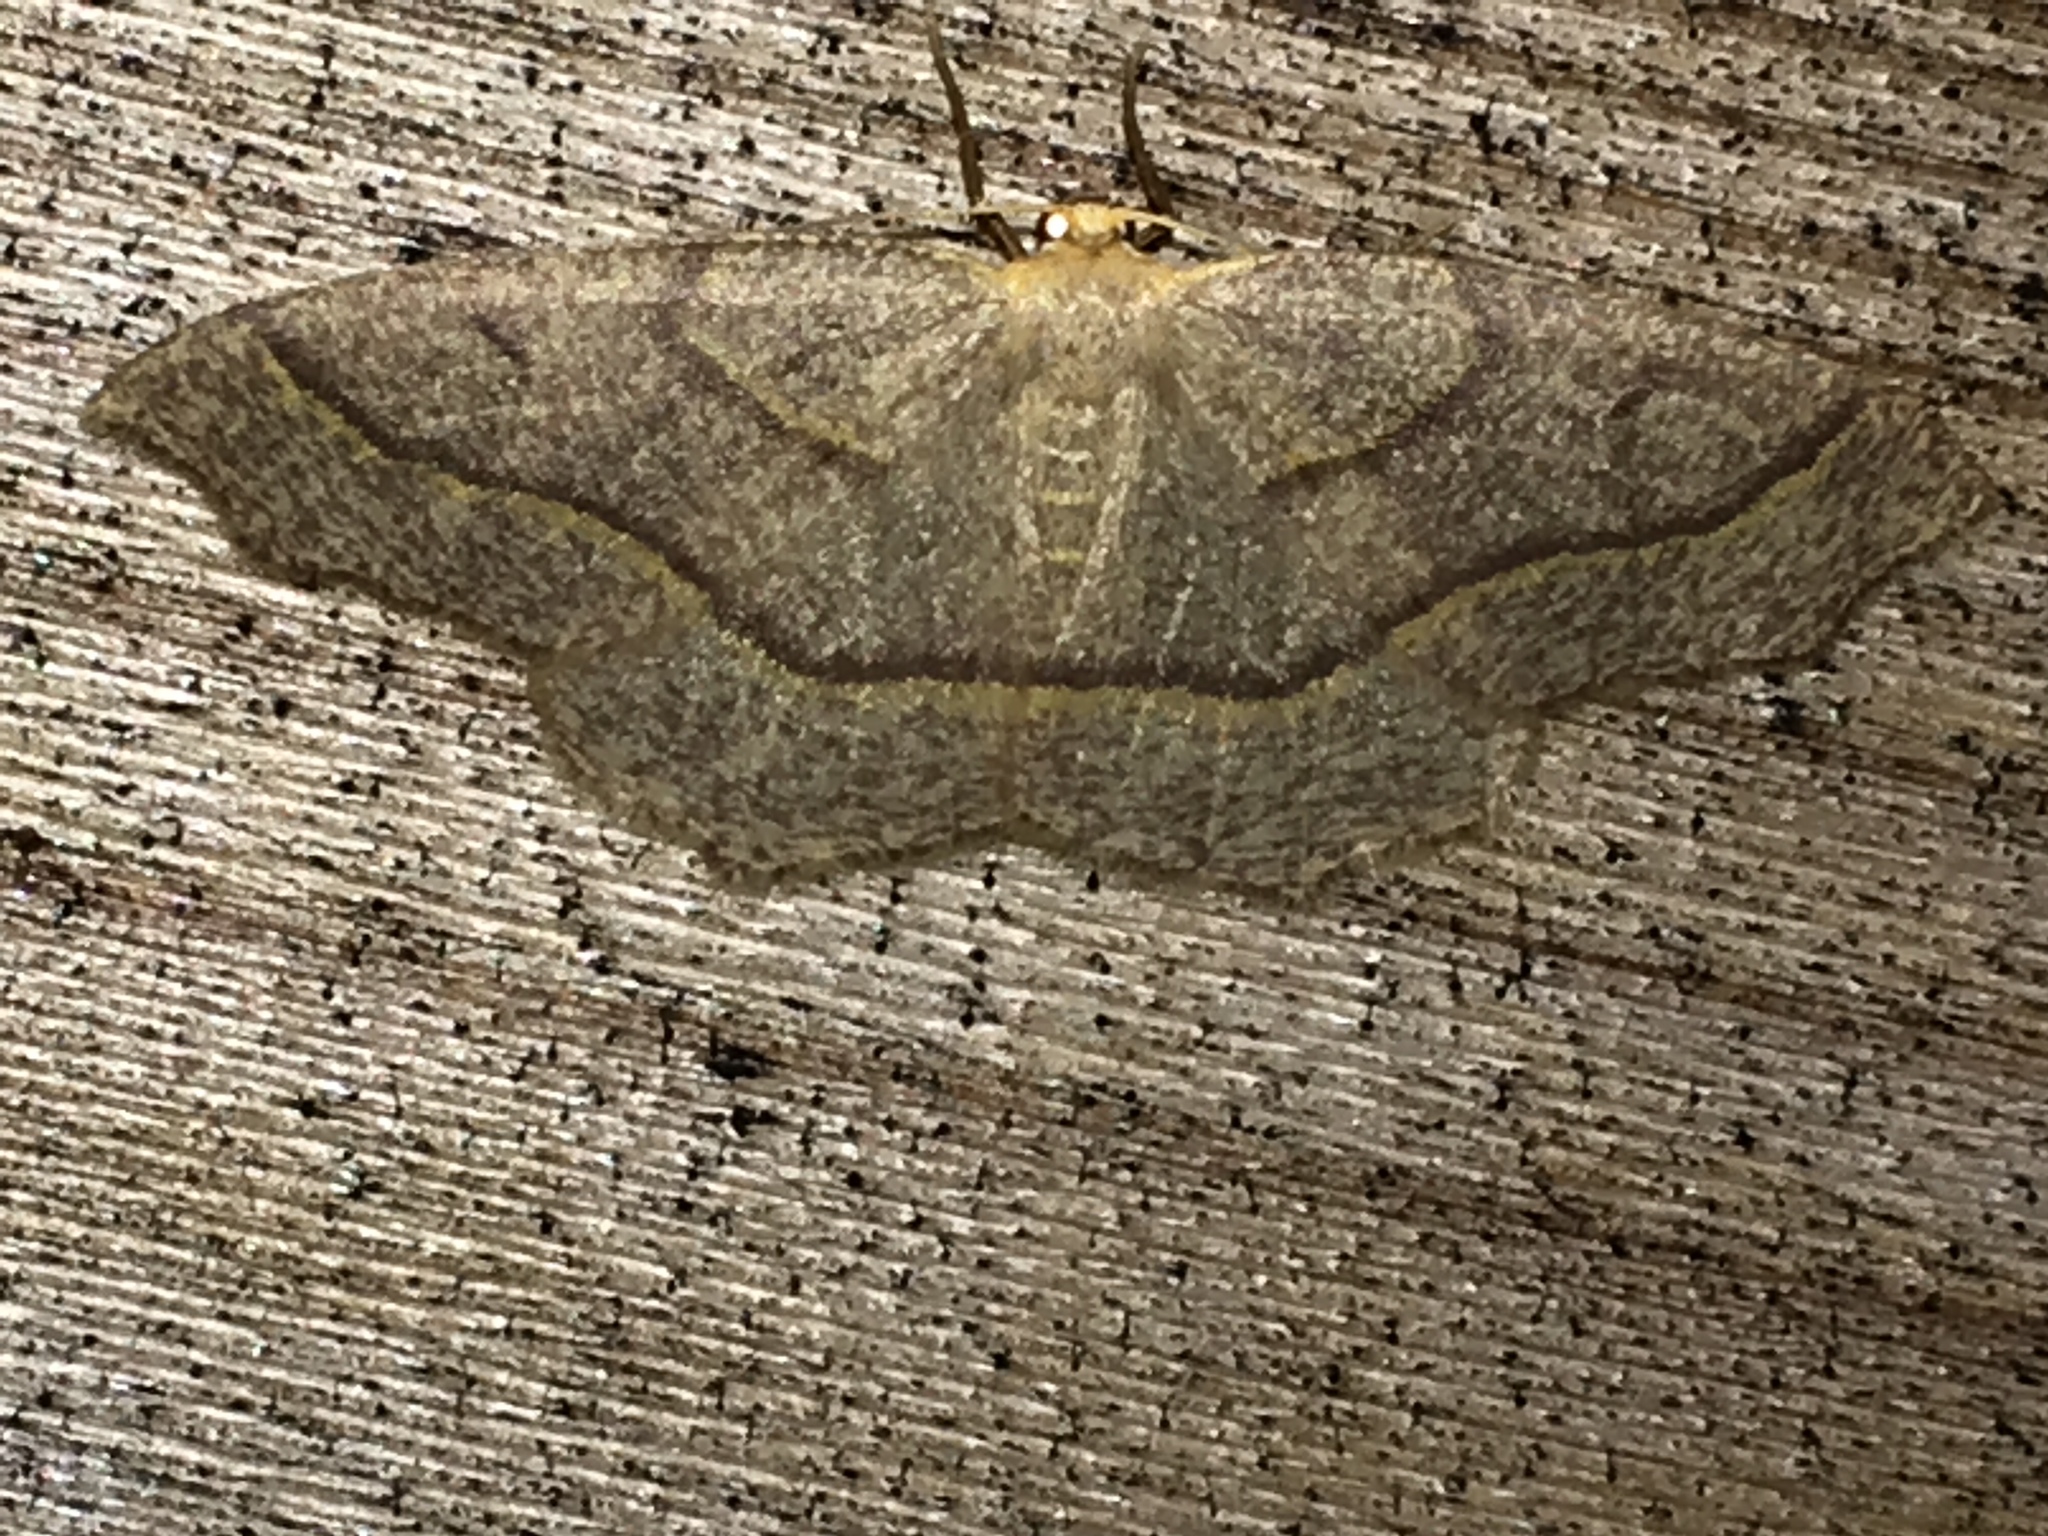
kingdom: Animalia
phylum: Arthropoda
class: Insecta
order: Lepidoptera
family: Geometridae
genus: Lambdina
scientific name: Lambdina fiscellaria
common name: Hemlock looper
